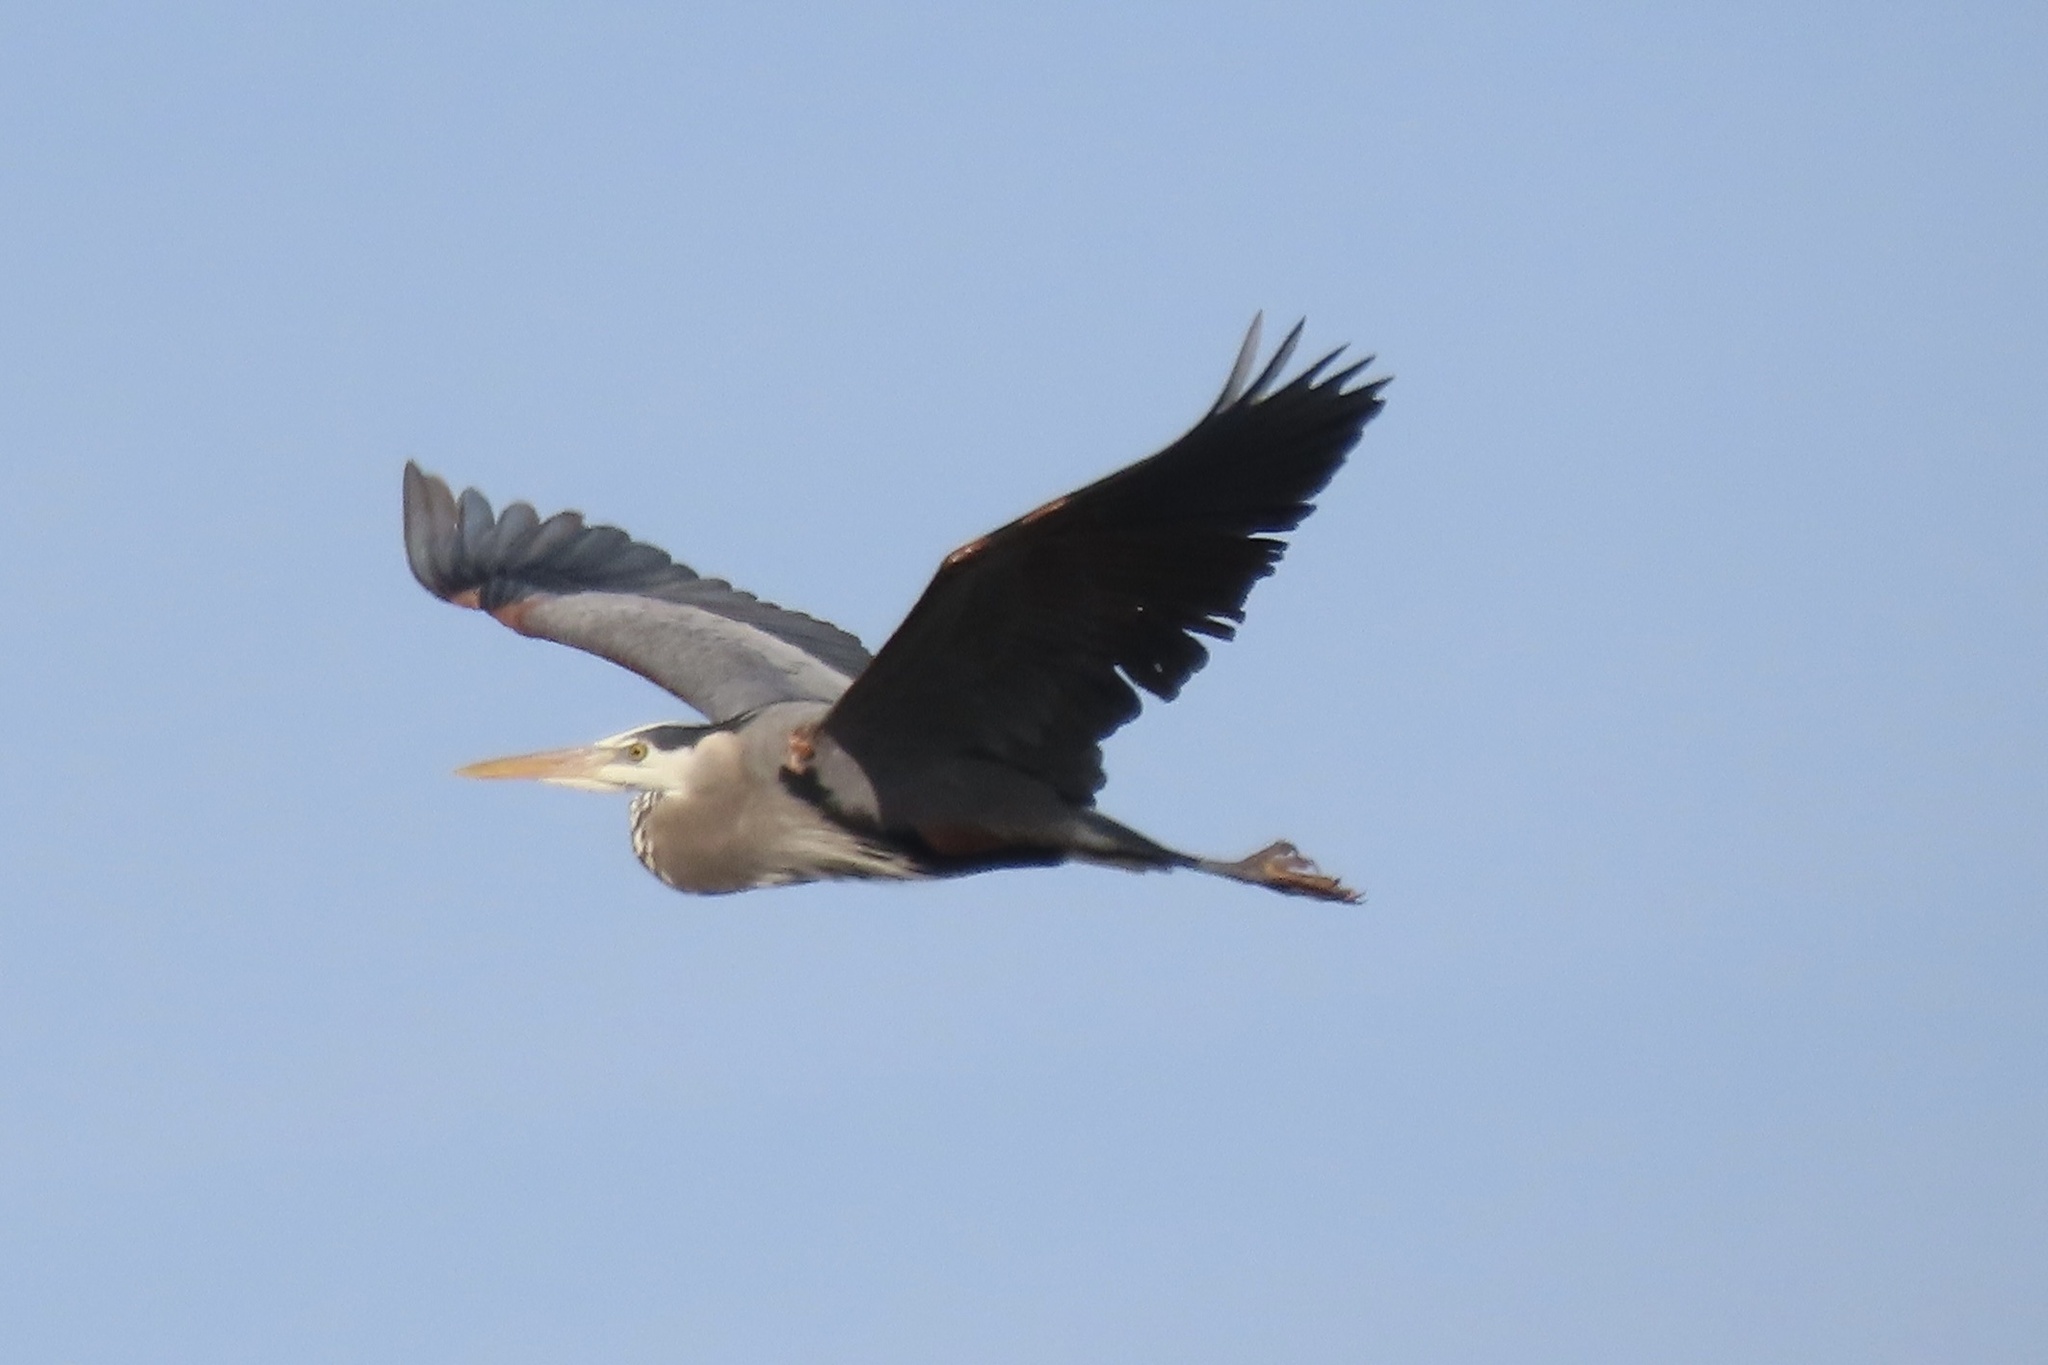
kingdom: Animalia
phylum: Chordata
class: Aves
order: Pelecaniformes
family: Ardeidae
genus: Ardea
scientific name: Ardea herodias
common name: Great blue heron
